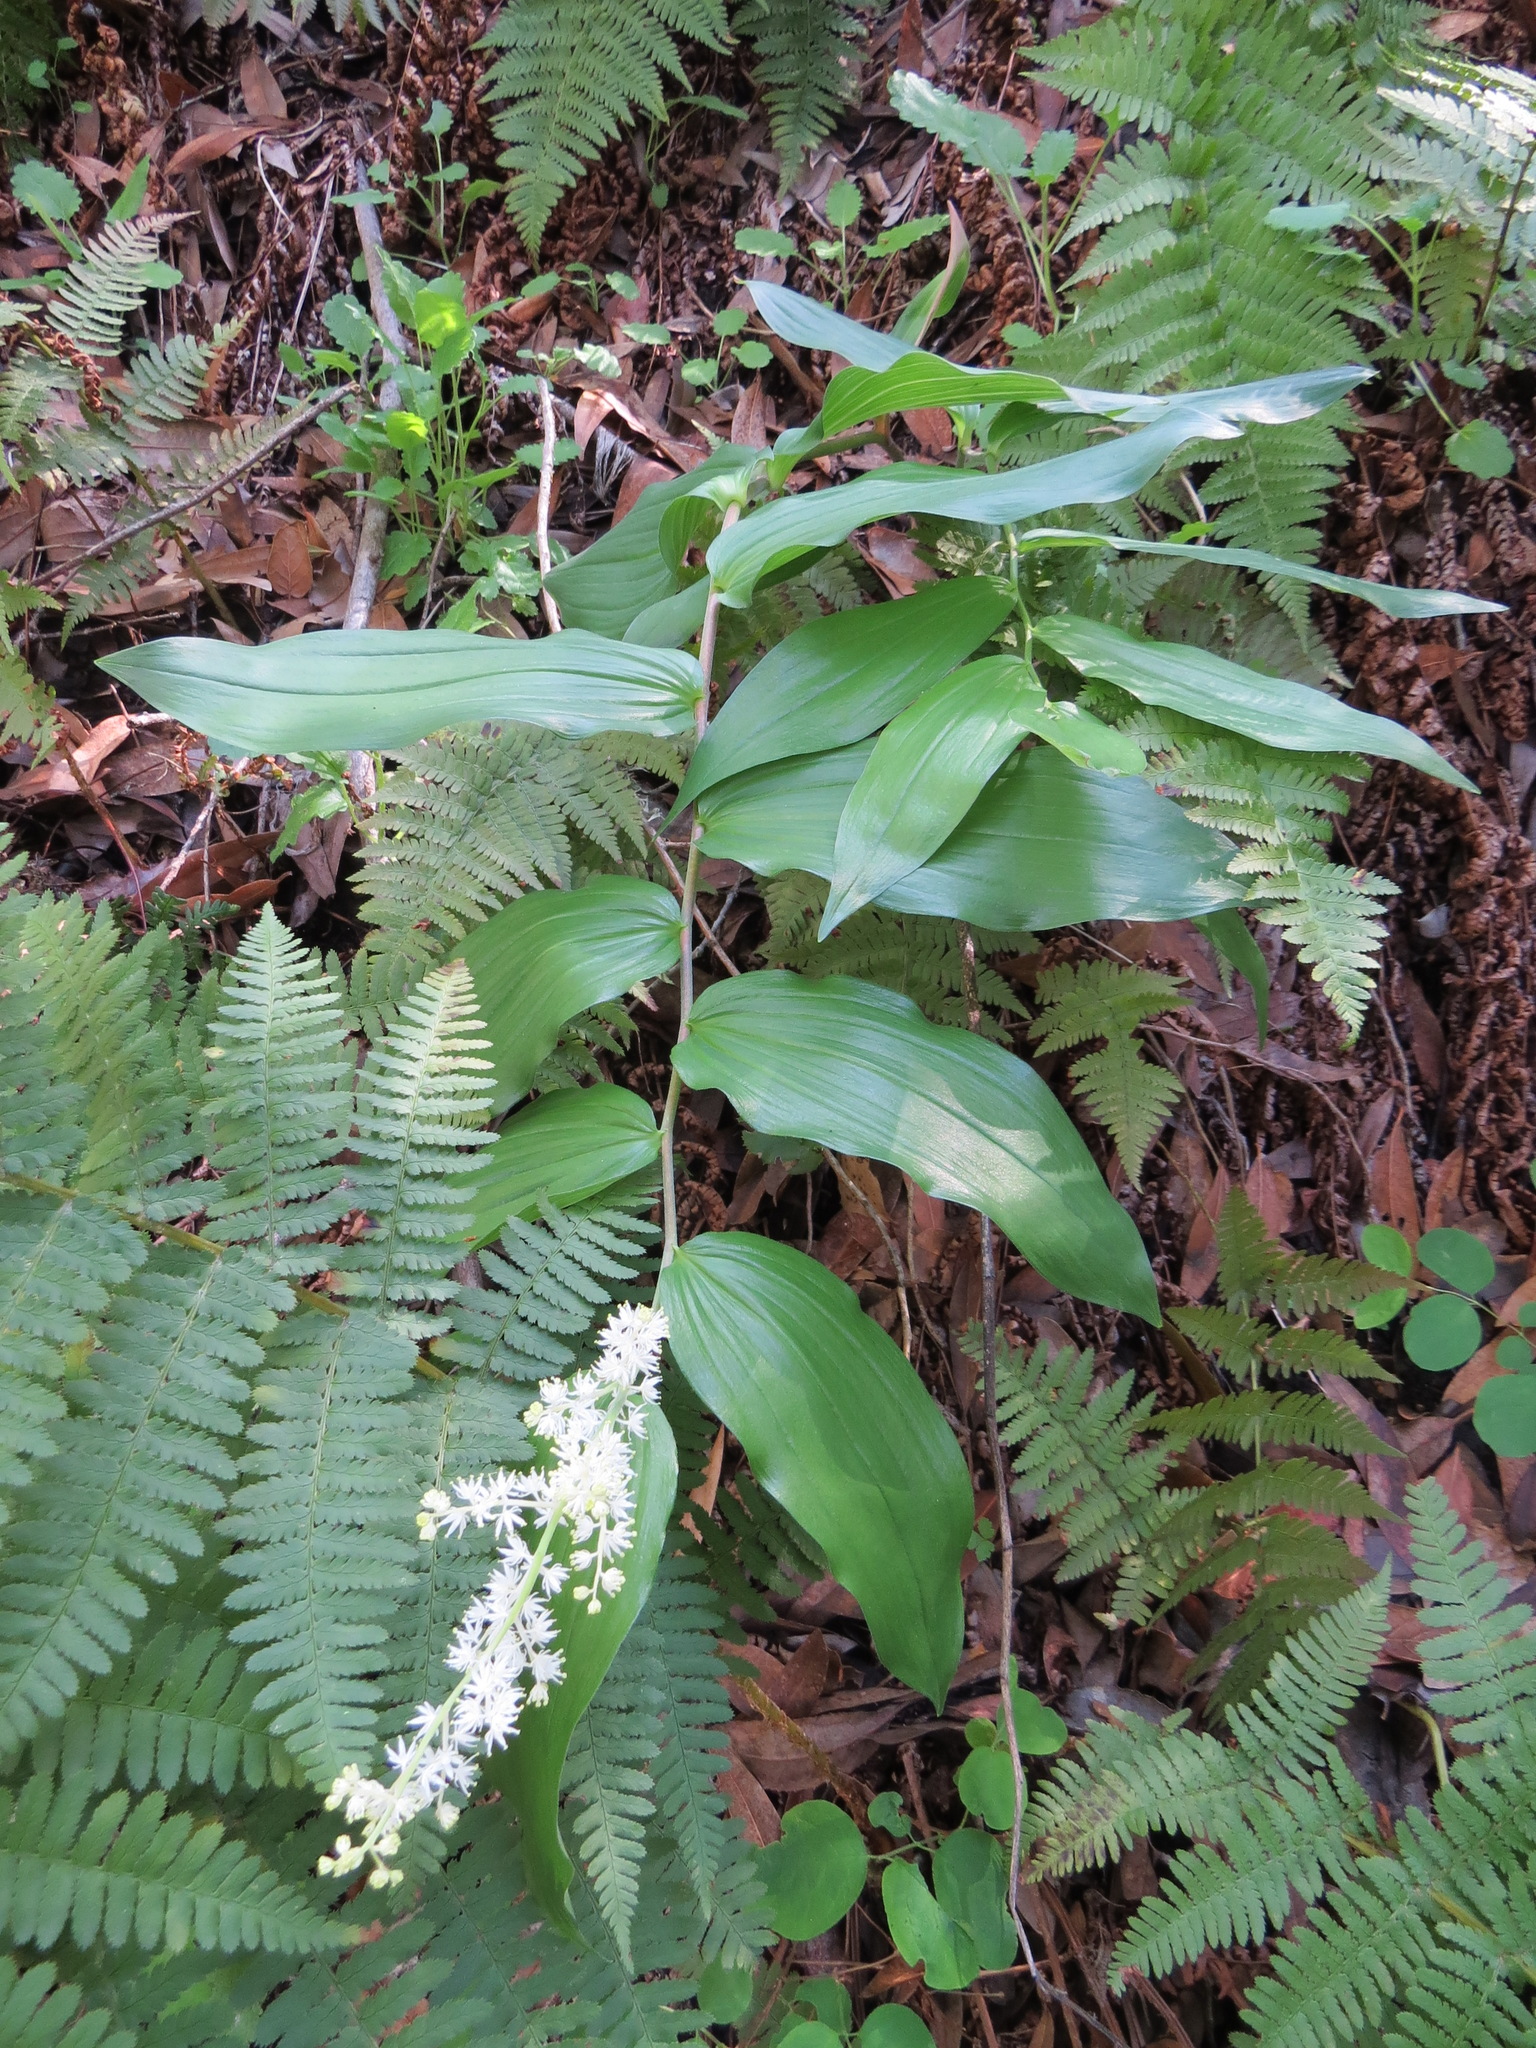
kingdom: Plantae
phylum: Tracheophyta
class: Liliopsida
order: Asparagales
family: Asparagaceae
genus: Maianthemum
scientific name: Maianthemum racemosum
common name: False spikenard
